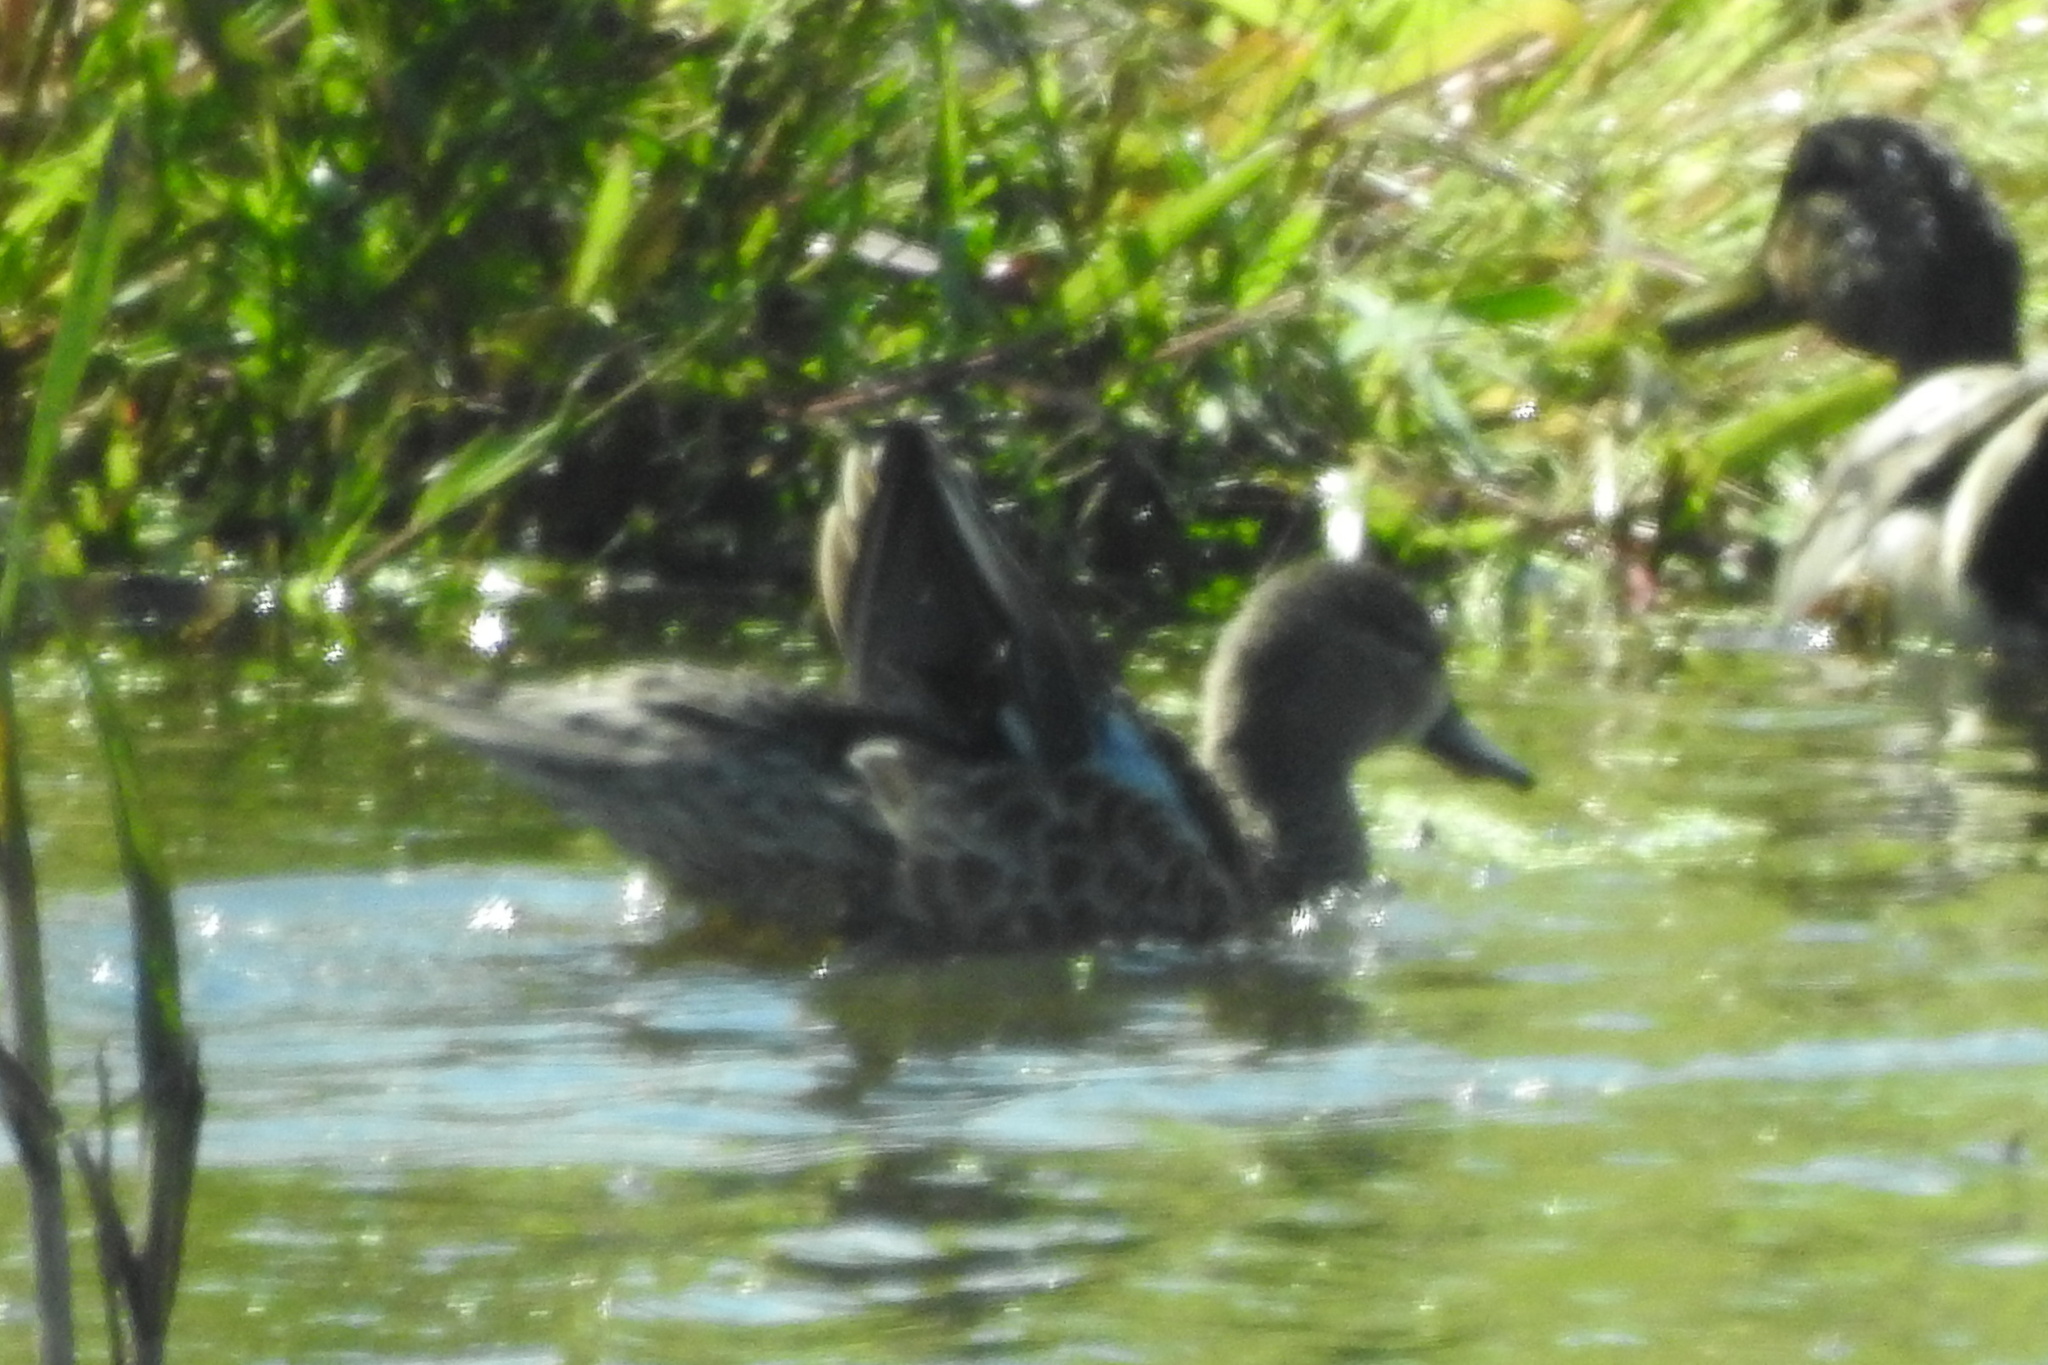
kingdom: Animalia
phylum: Chordata
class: Aves
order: Anseriformes
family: Anatidae
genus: Spatula
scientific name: Spatula discors
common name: Blue-winged teal
